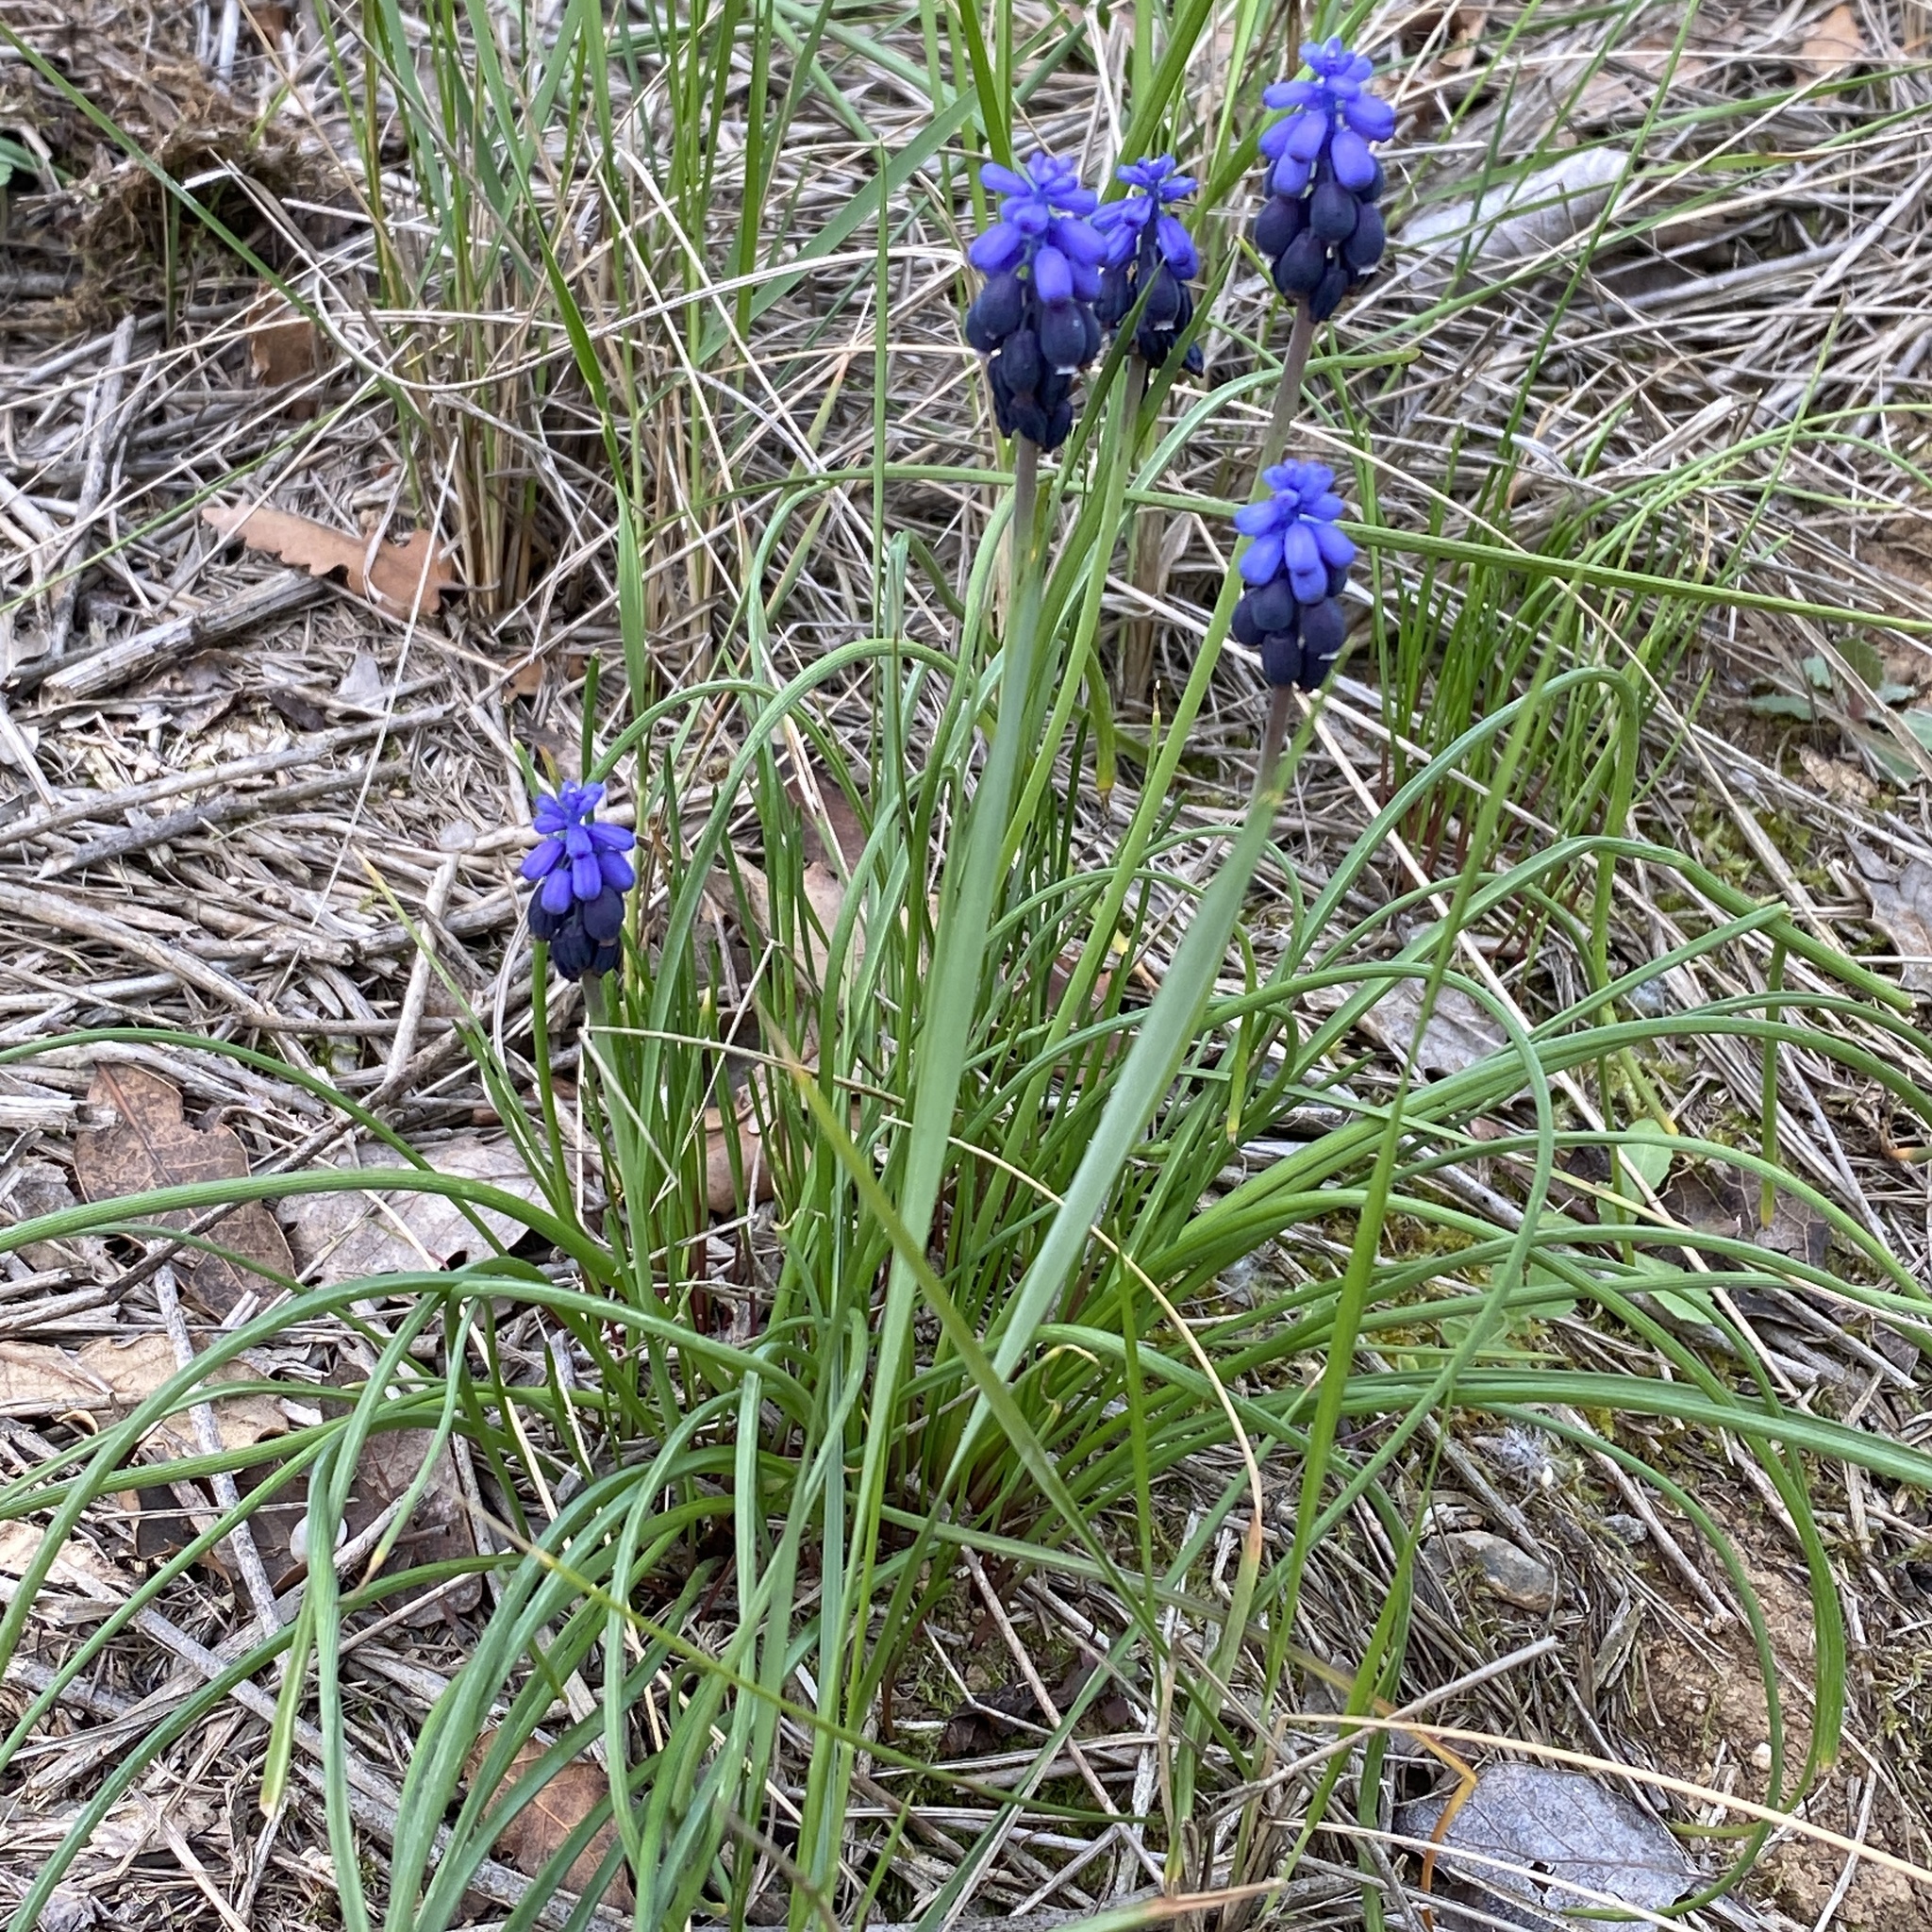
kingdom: Plantae
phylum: Tracheophyta
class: Liliopsida
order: Asparagales
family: Asparagaceae
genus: Muscari
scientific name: Muscari neglectum
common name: Grape-hyacinth
